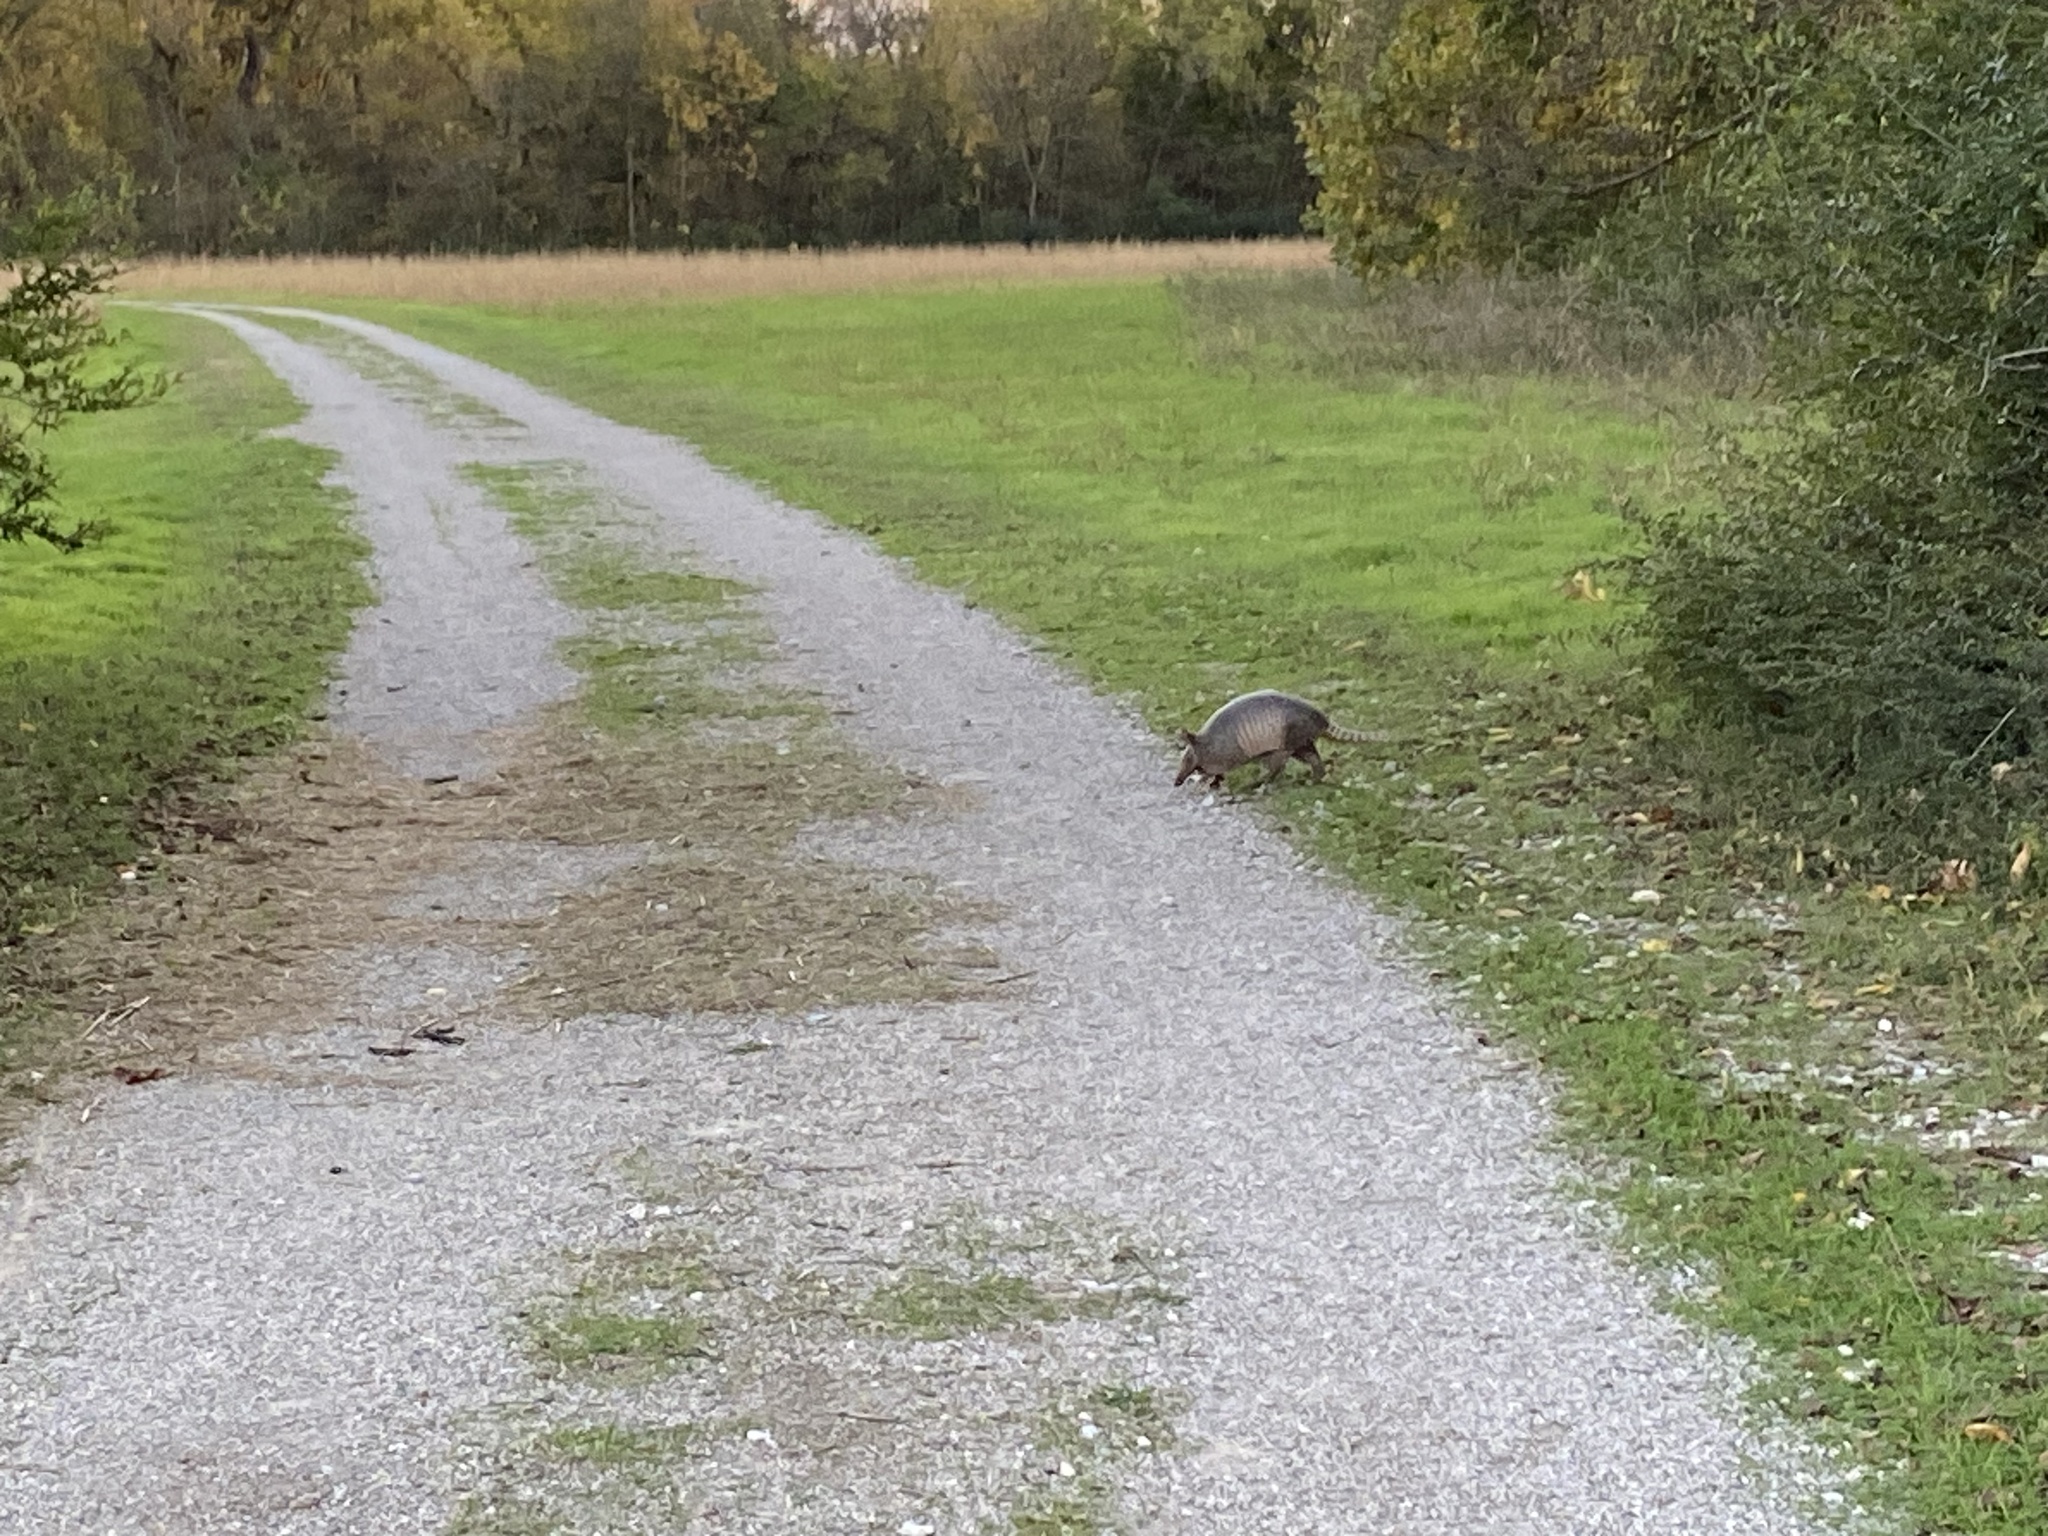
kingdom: Animalia
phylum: Chordata
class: Mammalia
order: Cingulata
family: Dasypodidae
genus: Dasypus
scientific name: Dasypus novemcinctus
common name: Nine-banded armadillo
